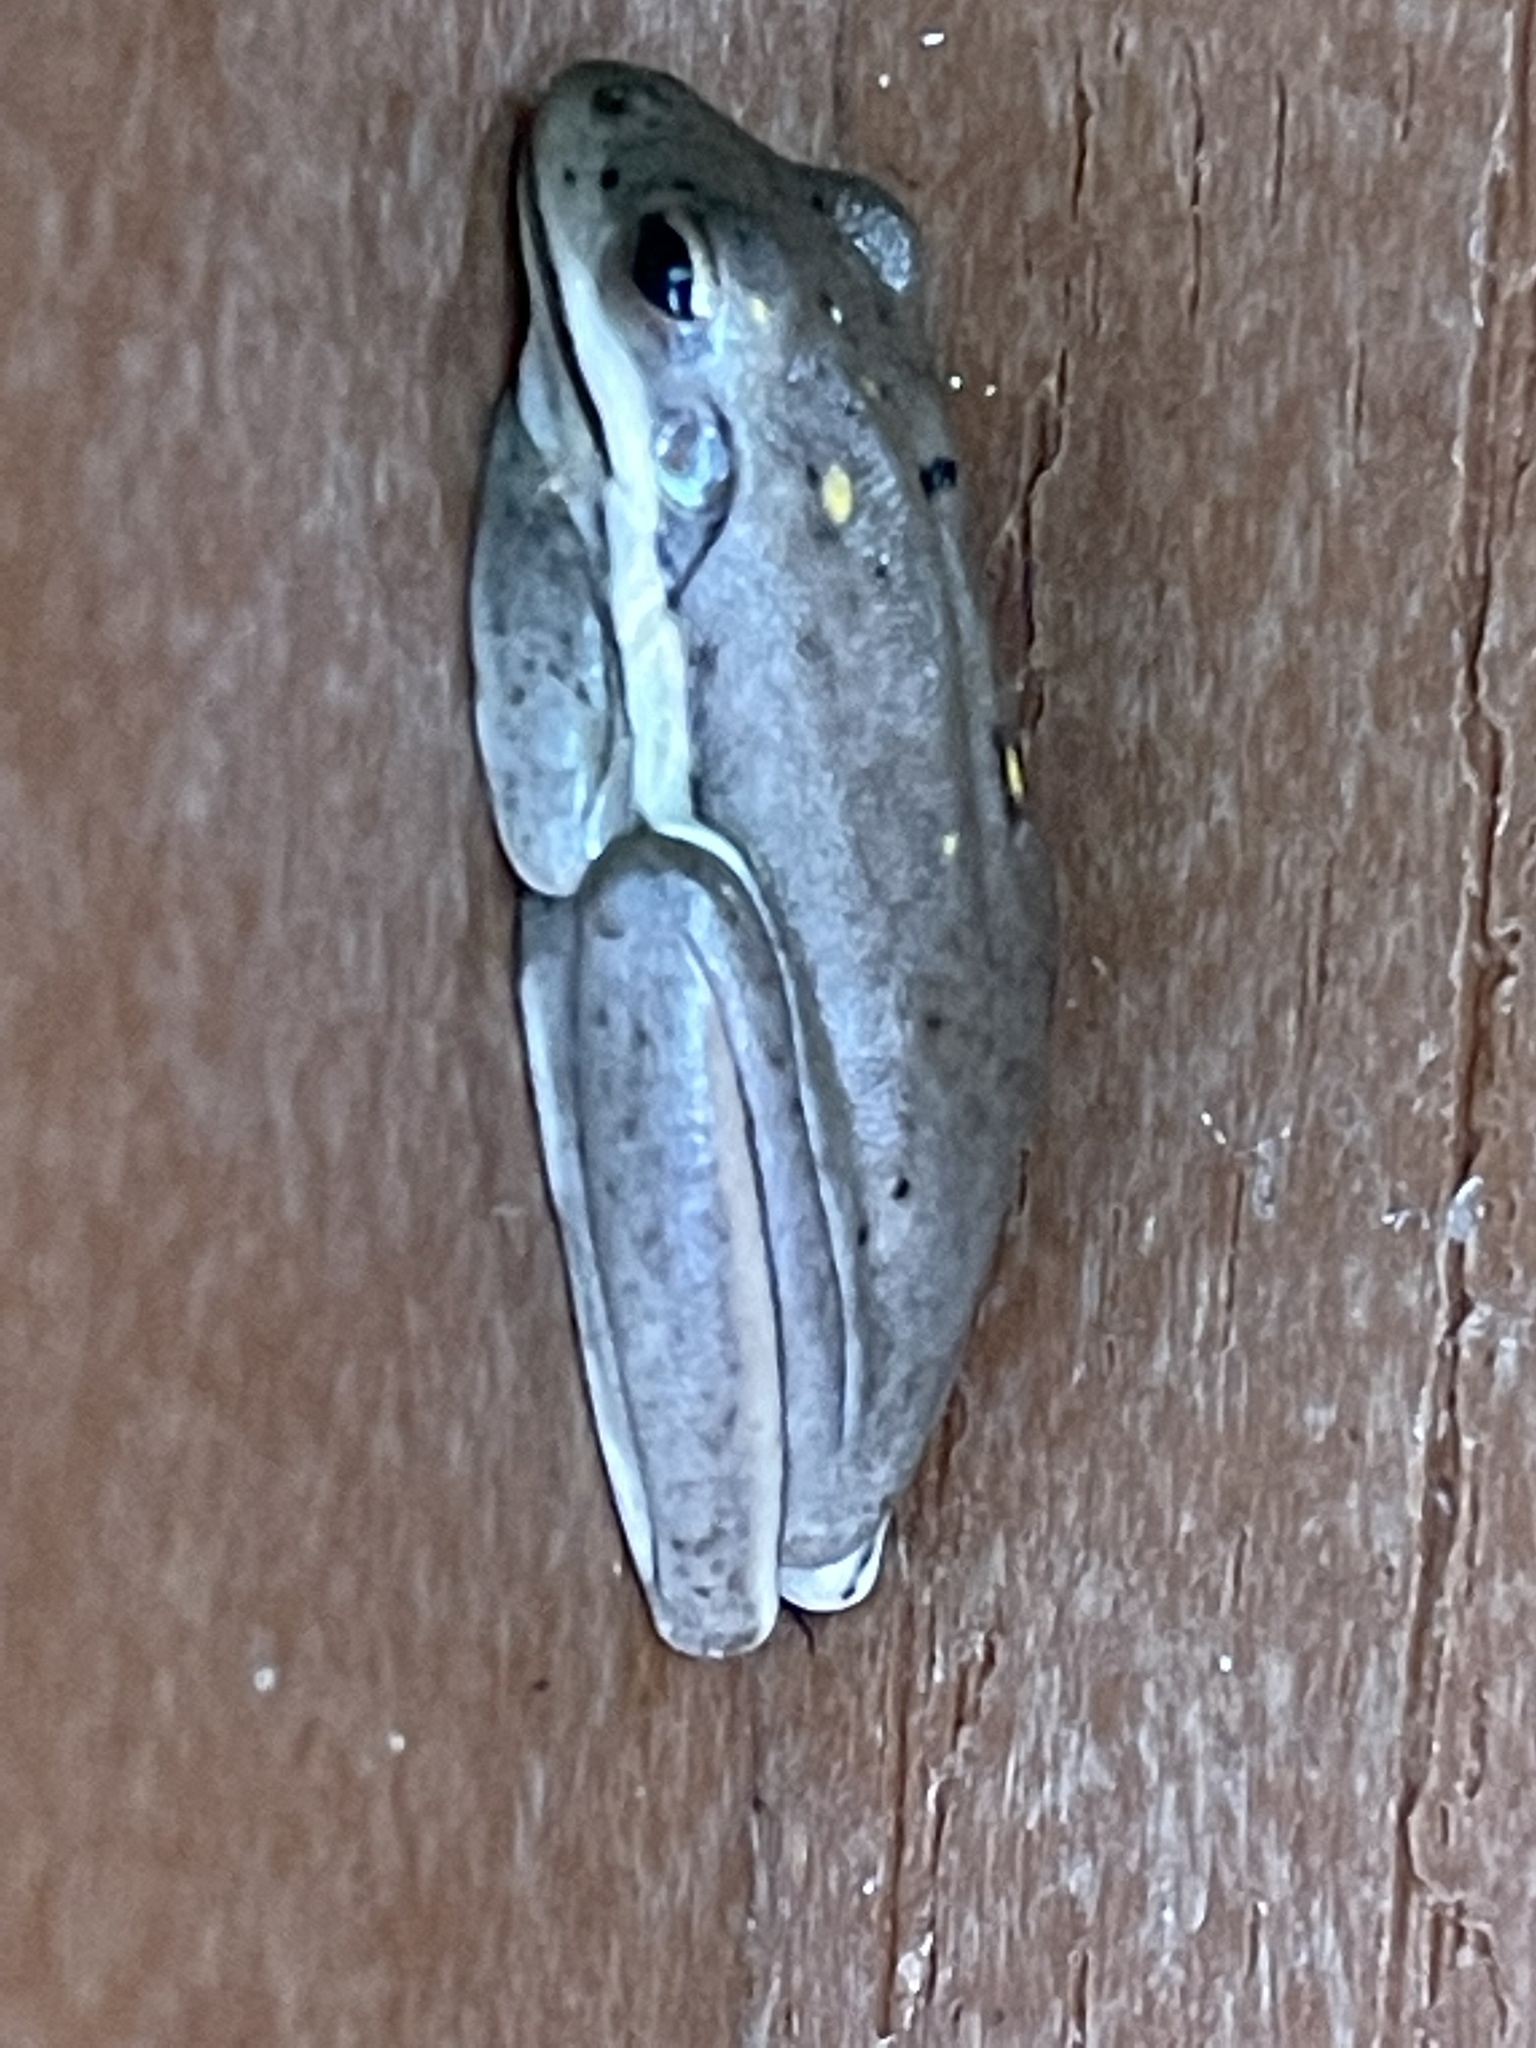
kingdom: Animalia
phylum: Chordata
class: Amphibia
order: Anura
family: Hylidae
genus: Dryophytes
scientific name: Dryophytes cinereus
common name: Green treefrog
